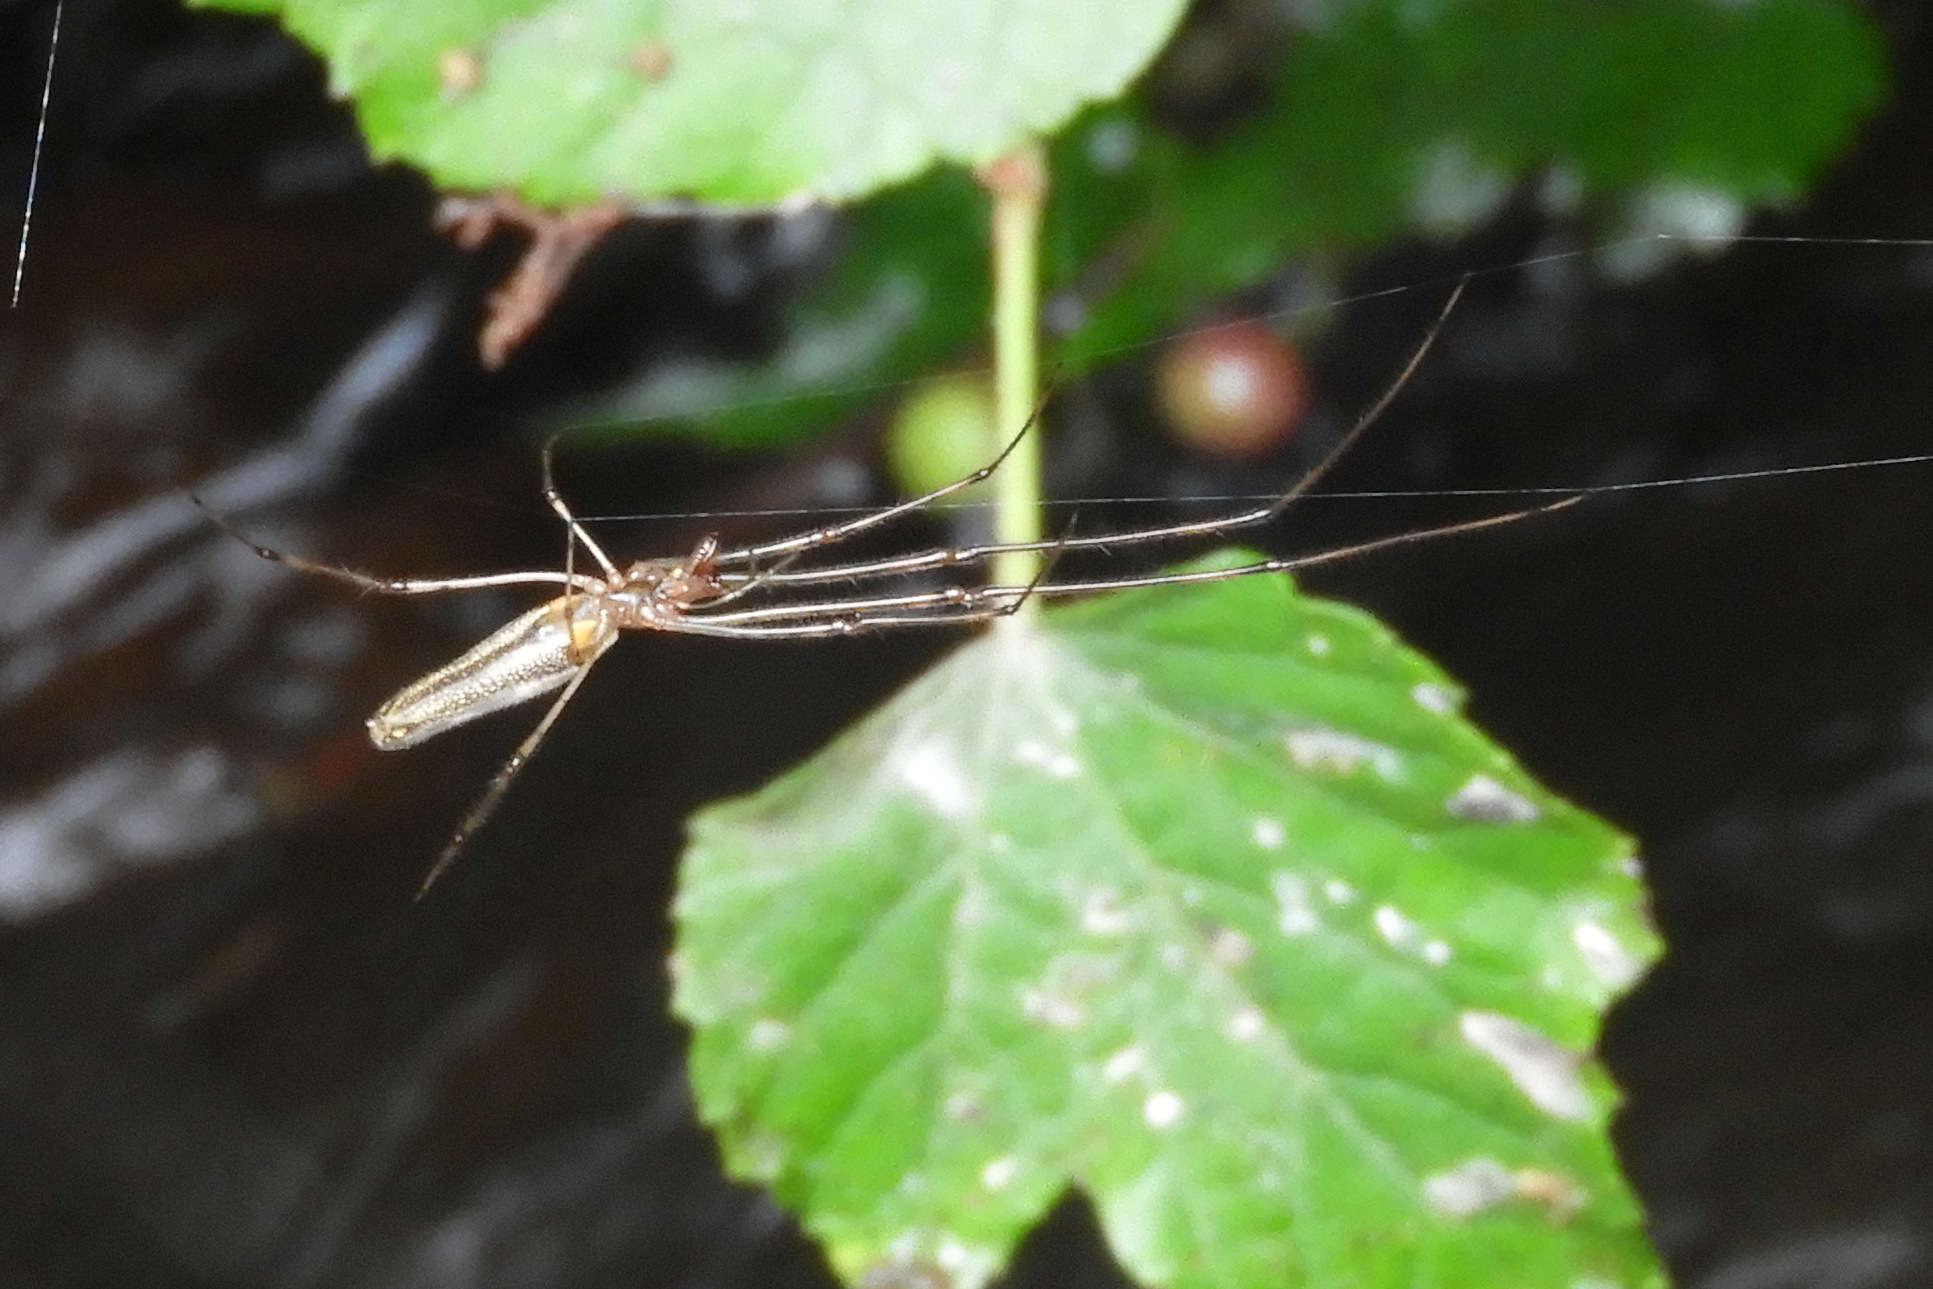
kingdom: Animalia
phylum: Arthropoda
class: Arachnida
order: Araneae
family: Tetragnathidae
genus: Tetragnatha
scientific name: Tetragnatha
